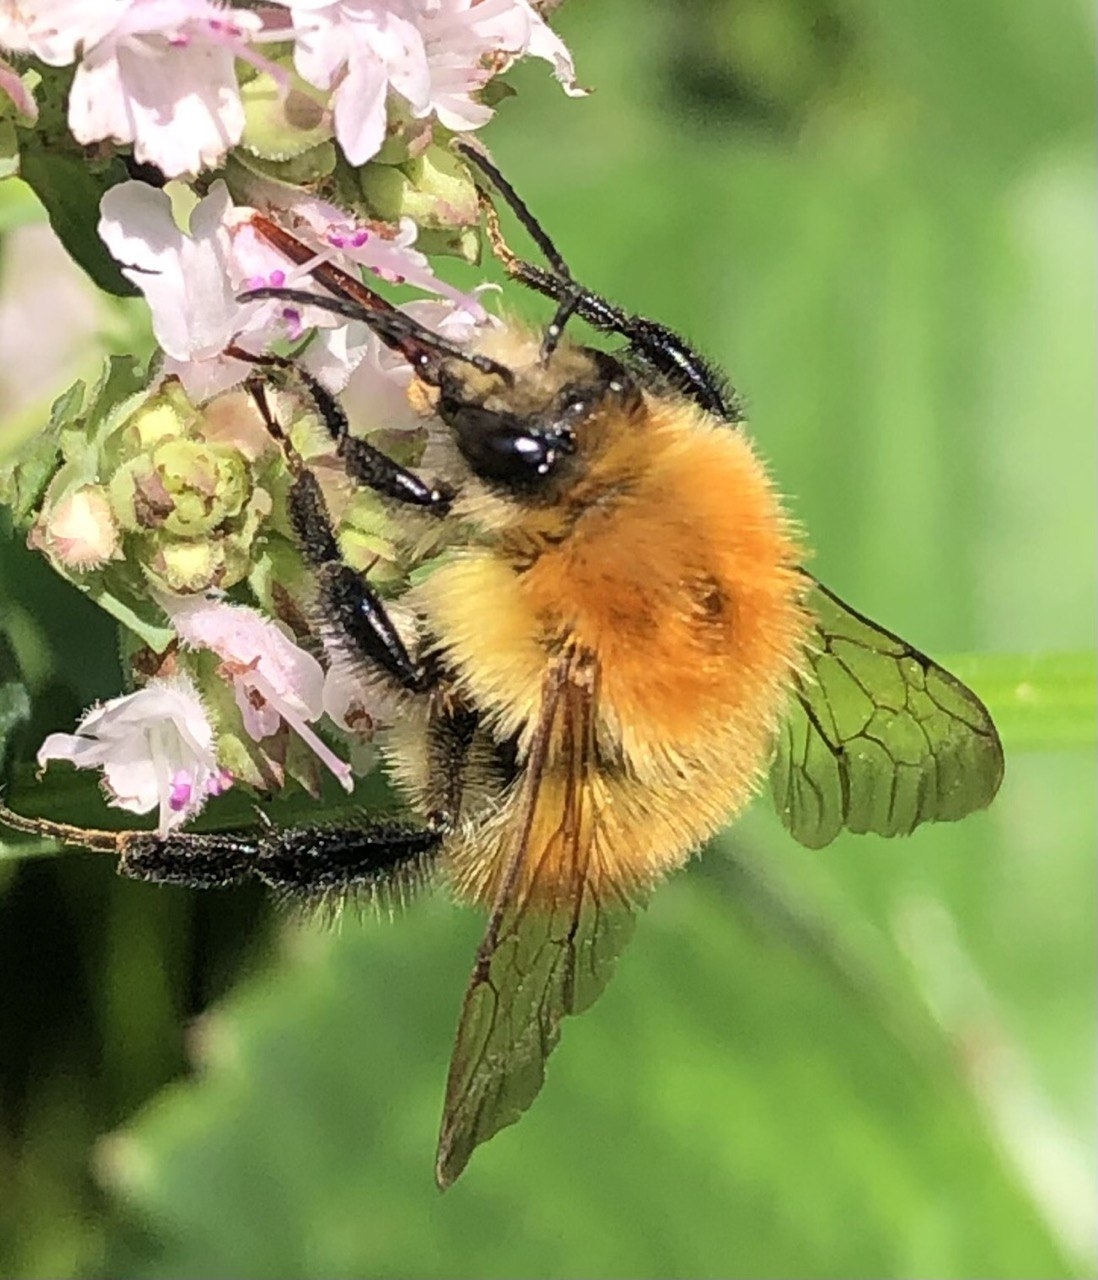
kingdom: Animalia
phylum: Arthropoda
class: Insecta
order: Hymenoptera
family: Apidae
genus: Bombus
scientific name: Bombus pascuorum
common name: Common carder bee
